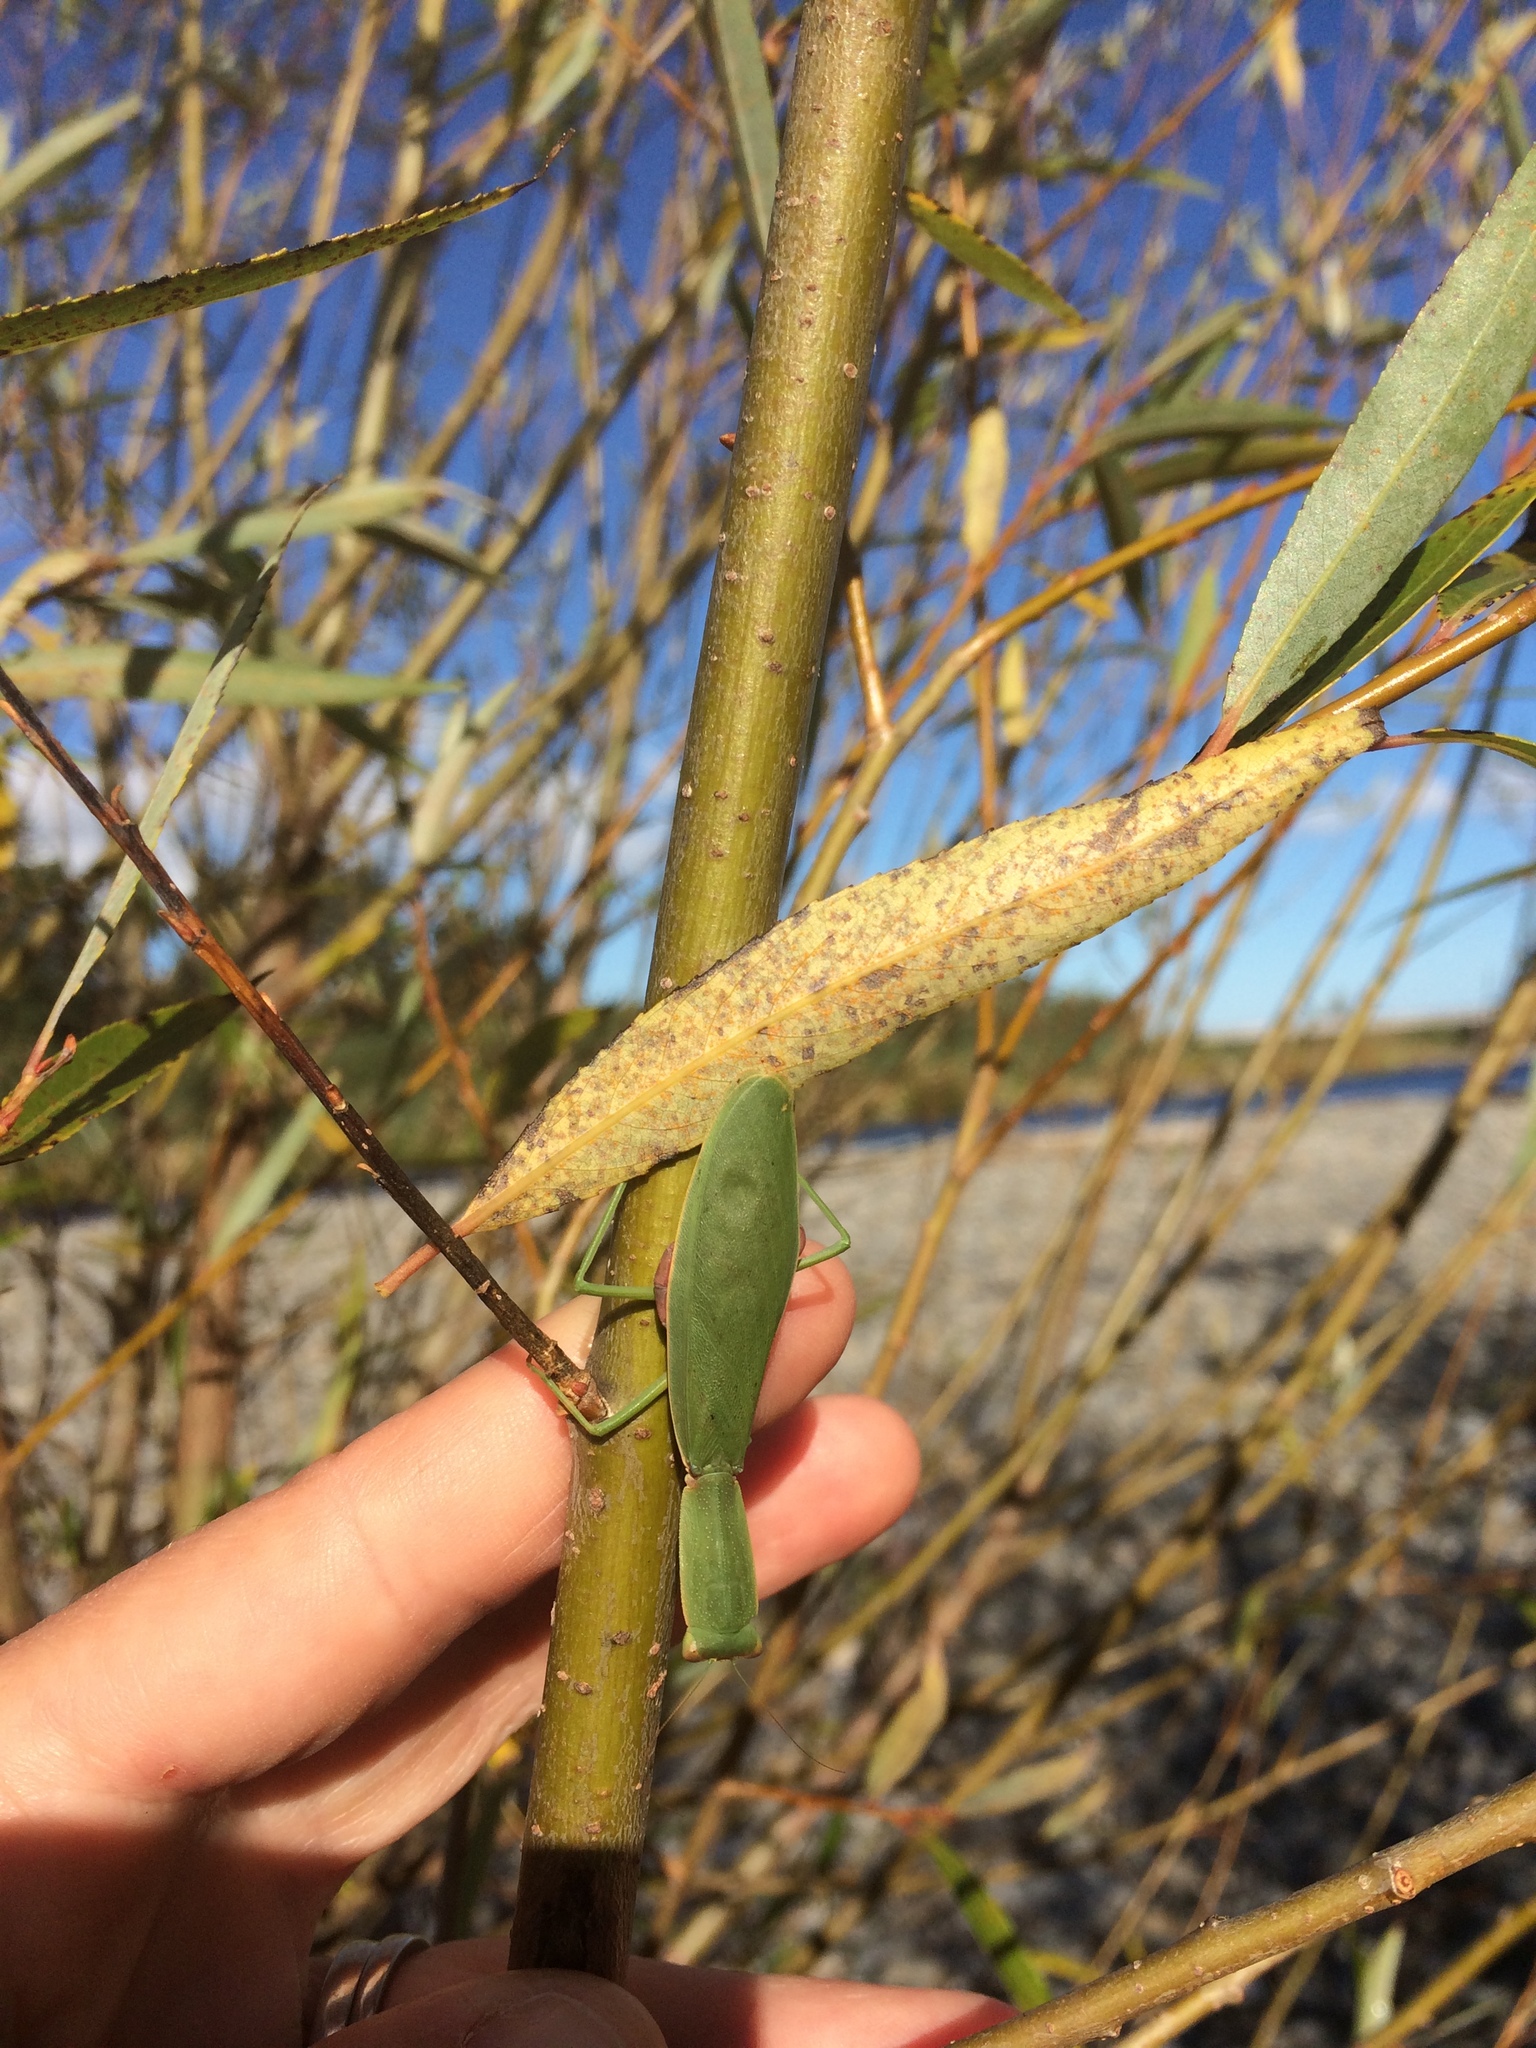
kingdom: Animalia
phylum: Arthropoda
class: Insecta
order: Mantodea
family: Mantidae
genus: Orthodera
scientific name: Orthodera novaezealandiae
